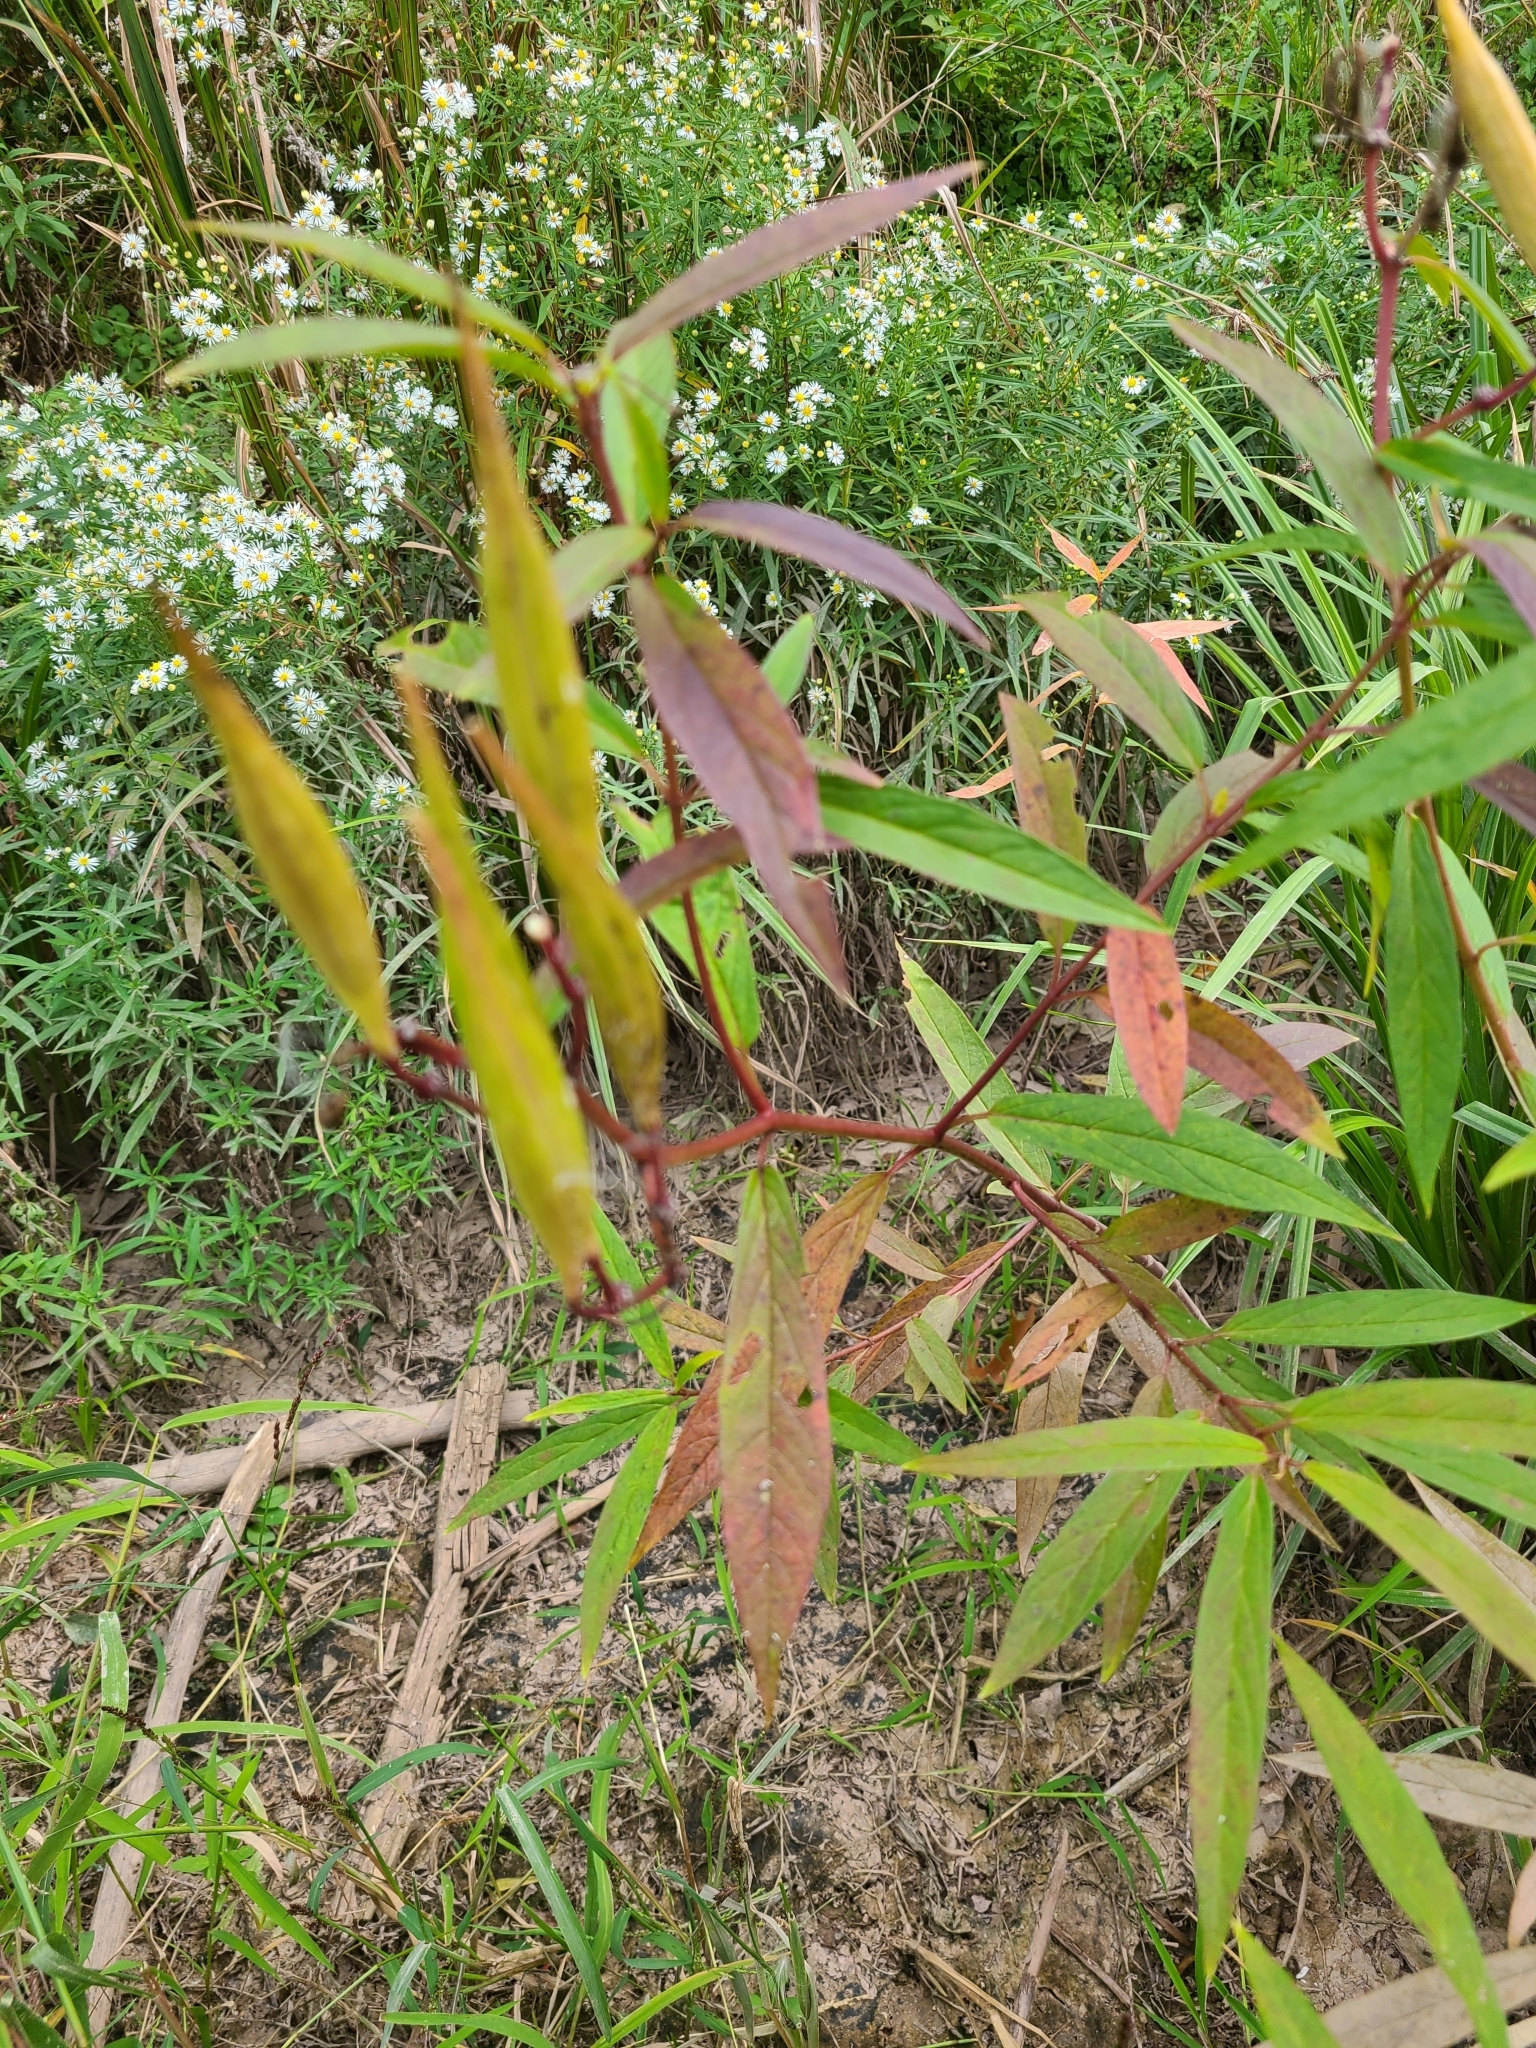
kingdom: Plantae
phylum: Tracheophyta
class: Magnoliopsida
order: Gentianales
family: Apocynaceae
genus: Asclepias
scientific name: Asclepias incarnata
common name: Swamp milkweed
